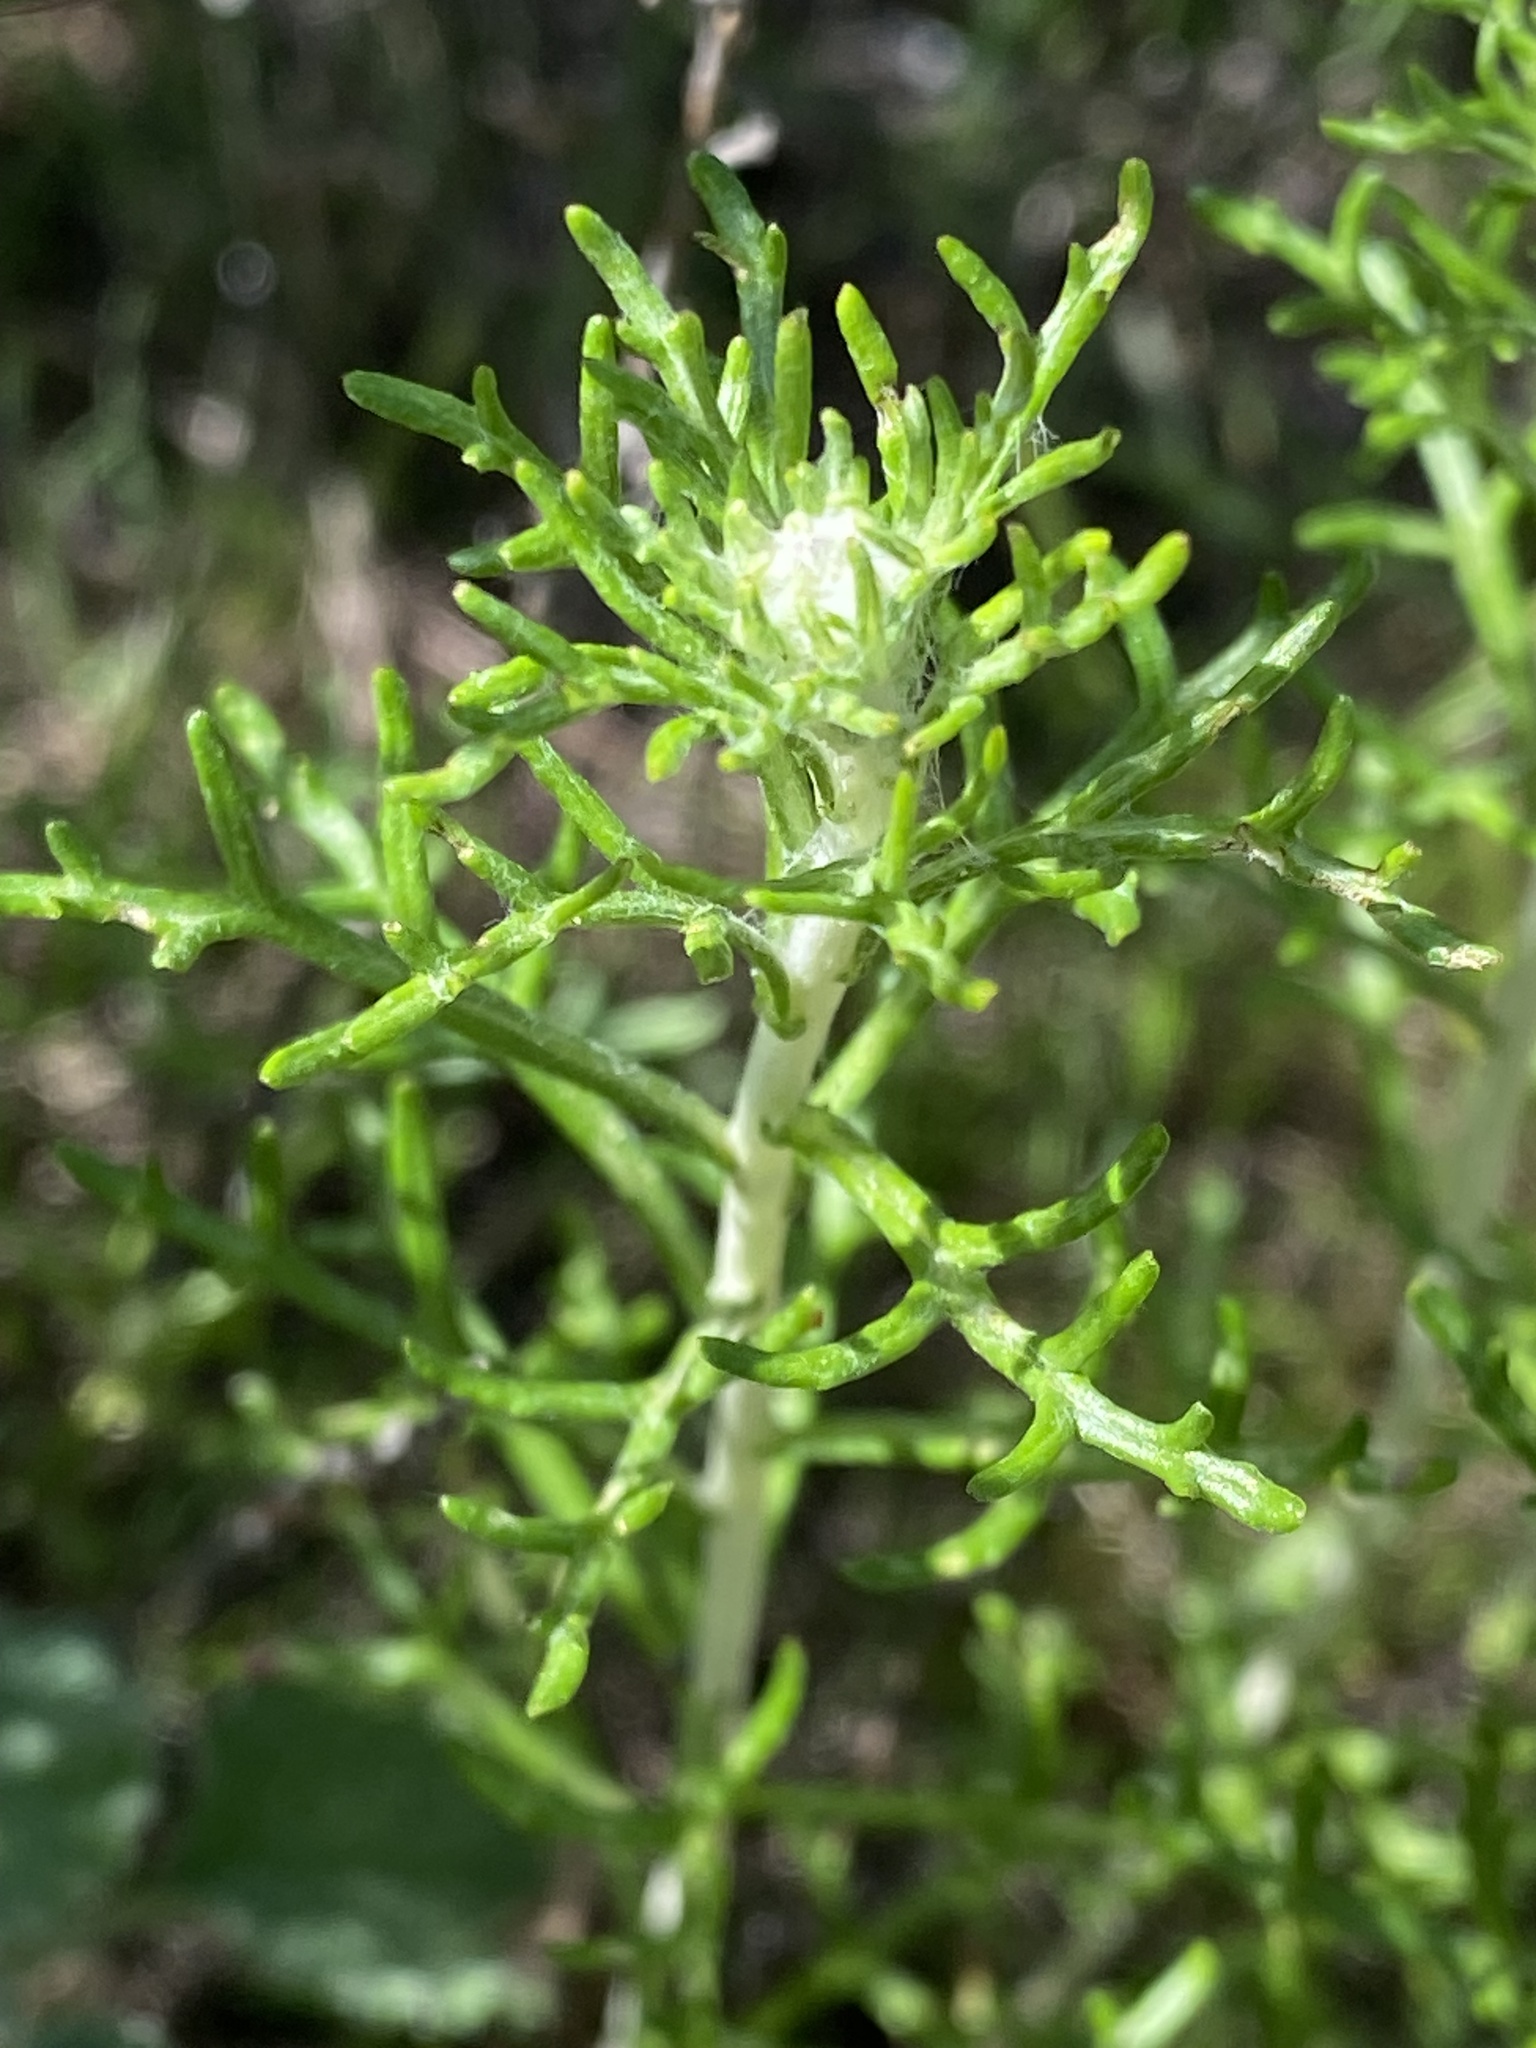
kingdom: Plantae
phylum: Tracheophyta
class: Magnoliopsida
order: Asterales
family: Asteraceae
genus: Eriophyllum
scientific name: Eriophyllum confertiflorum
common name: Golden-yarrow
